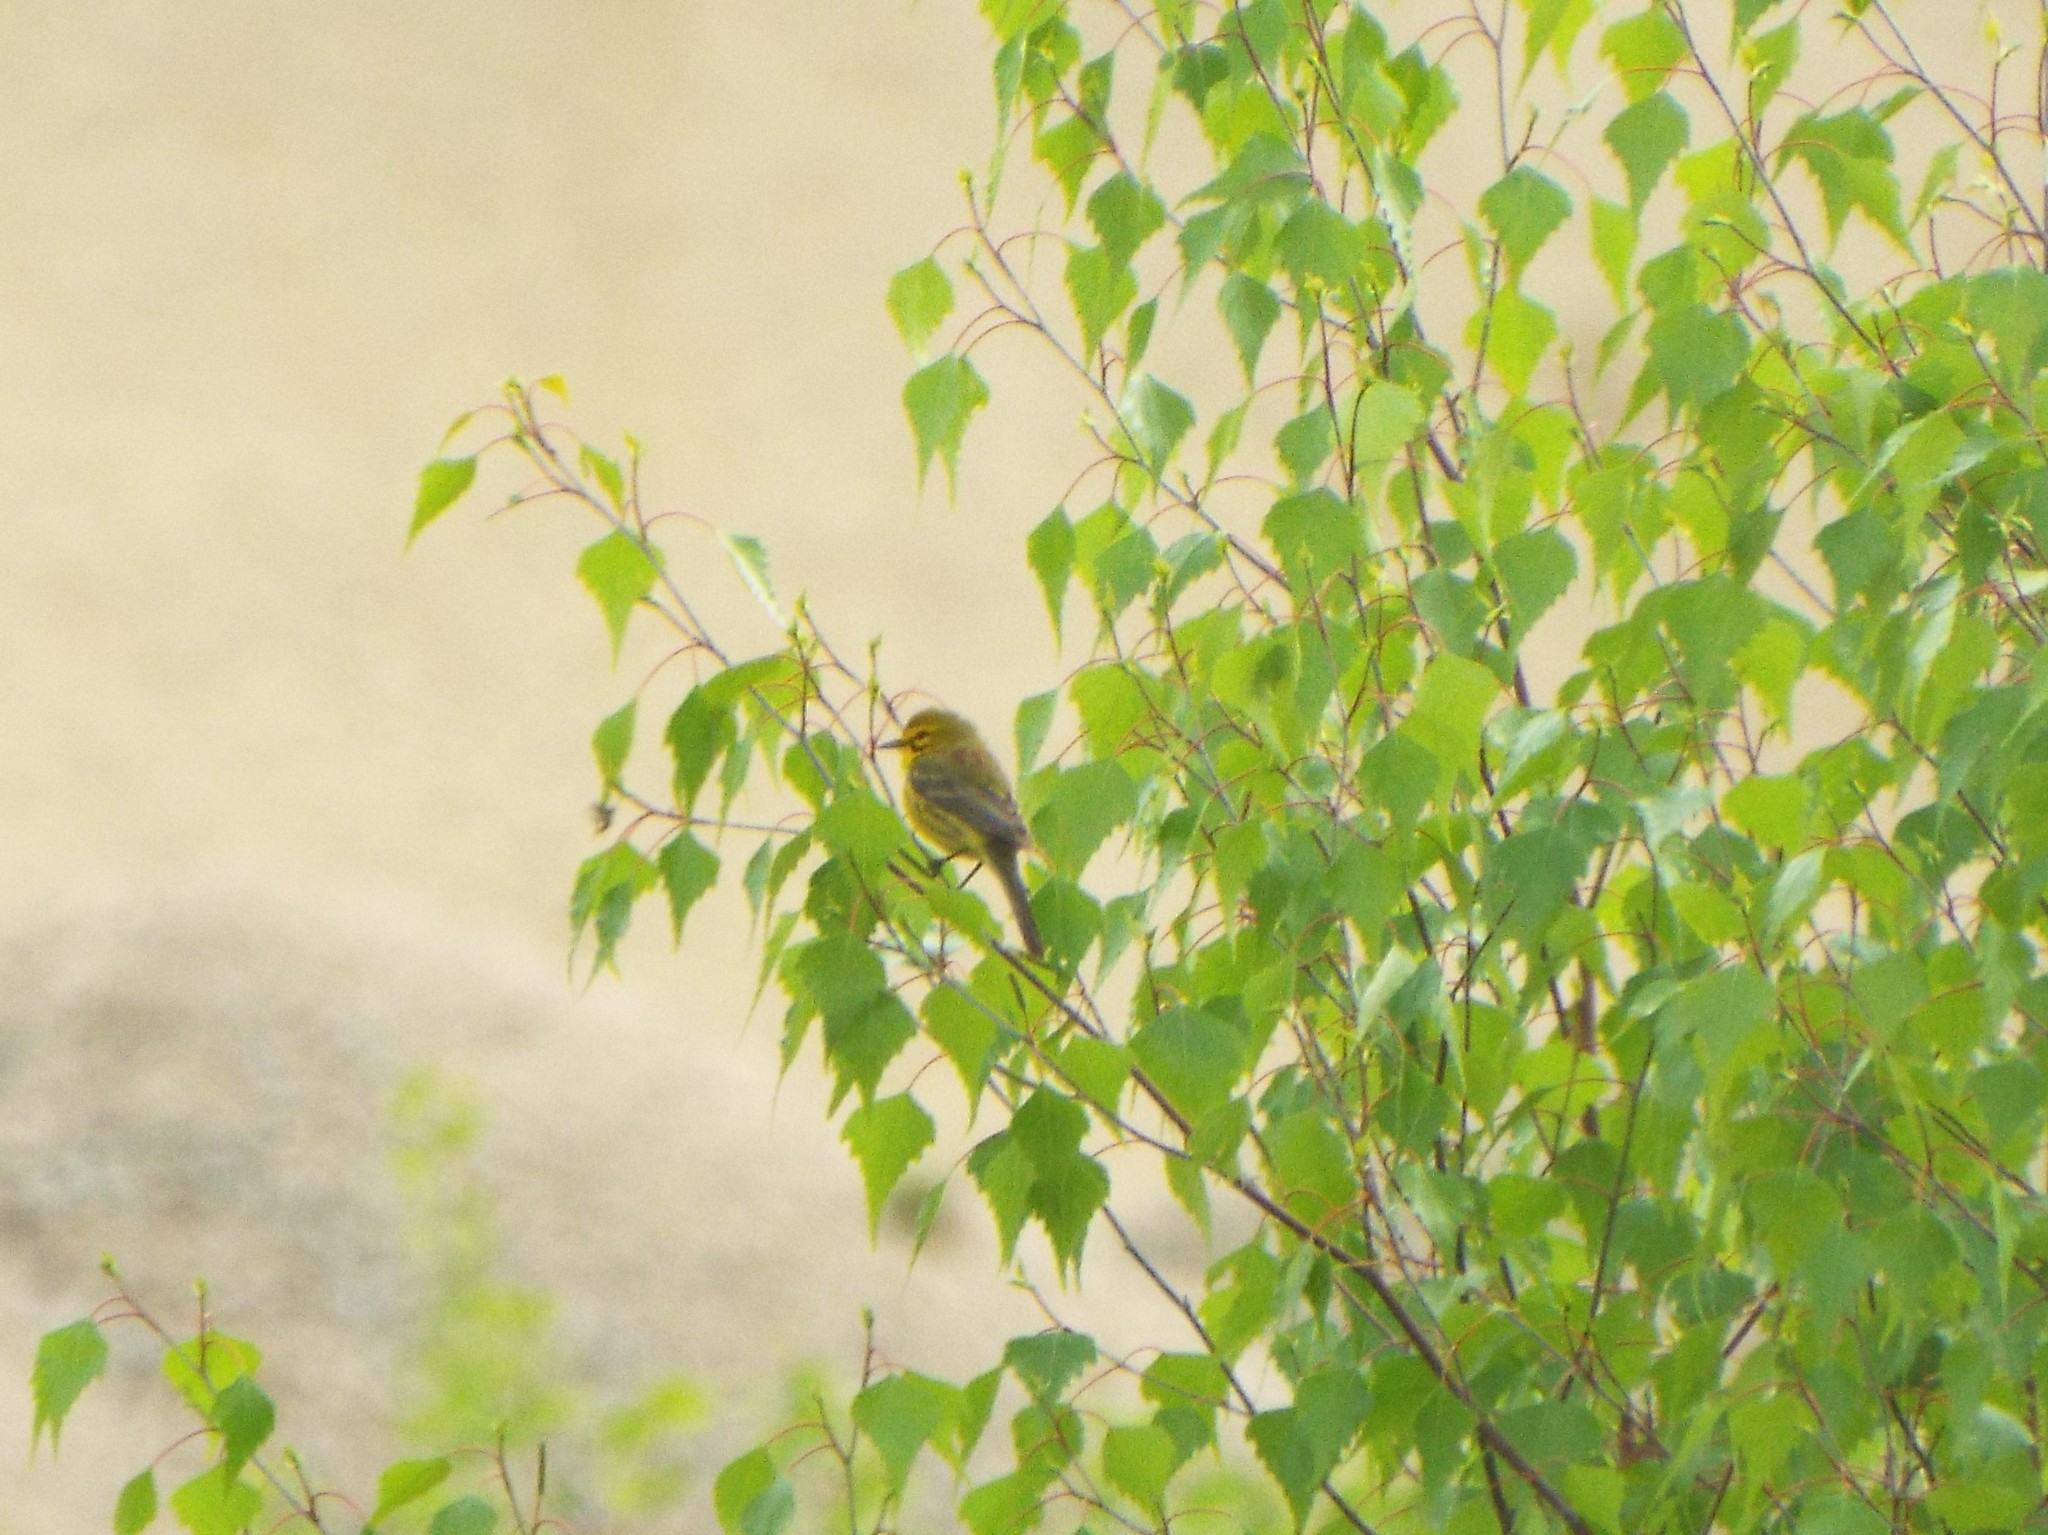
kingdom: Animalia
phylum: Chordata
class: Aves
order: Passeriformes
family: Parulidae
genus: Setophaga
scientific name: Setophaga discolor
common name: Prairie warbler
